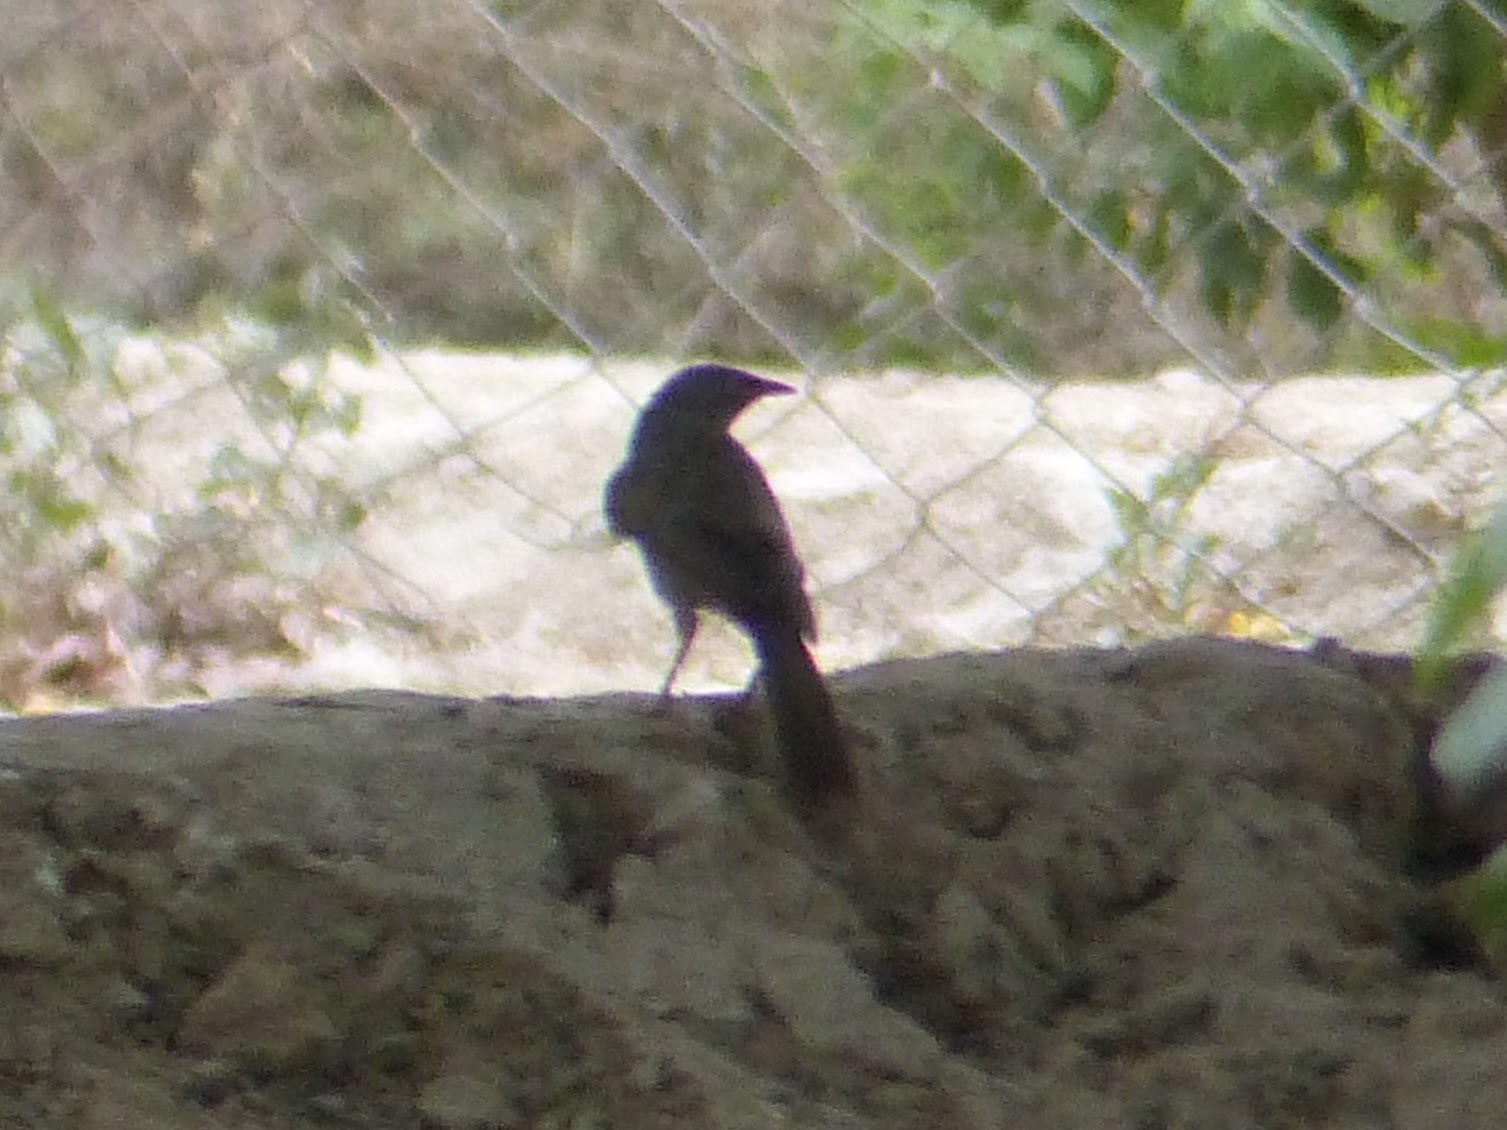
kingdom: Animalia
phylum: Chordata
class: Aves
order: Passeriformes
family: Leiothrichidae
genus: Turdoides
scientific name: Turdoides malcolmi
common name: Large grey babbler
